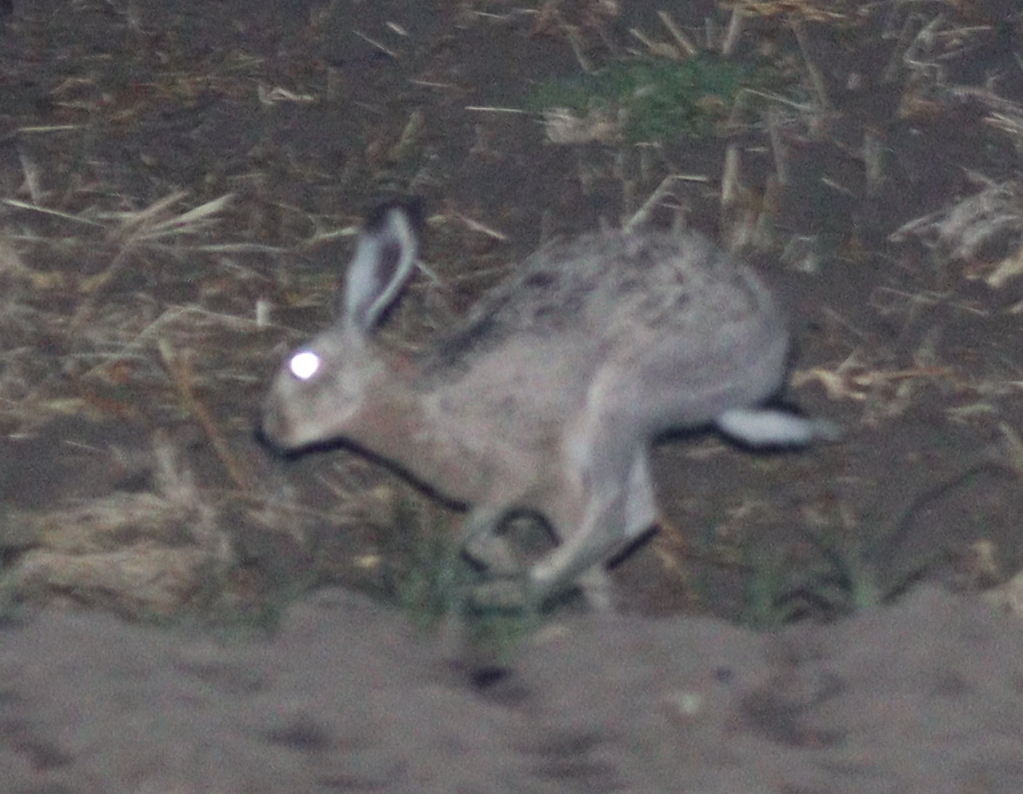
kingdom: Animalia
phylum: Chordata
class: Mammalia
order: Lagomorpha
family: Leporidae
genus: Lepus
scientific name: Lepus europaeus
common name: European hare
